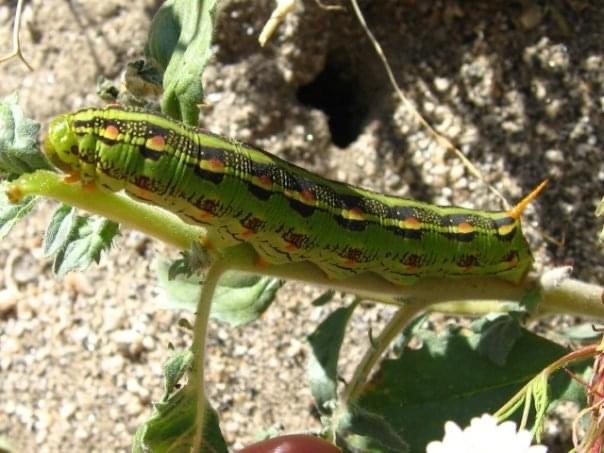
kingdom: Animalia
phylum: Arthropoda
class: Insecta
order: Lepidoptera
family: Sphingidae
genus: Hyles
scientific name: Hyles lineata
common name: White-lined sphinx
